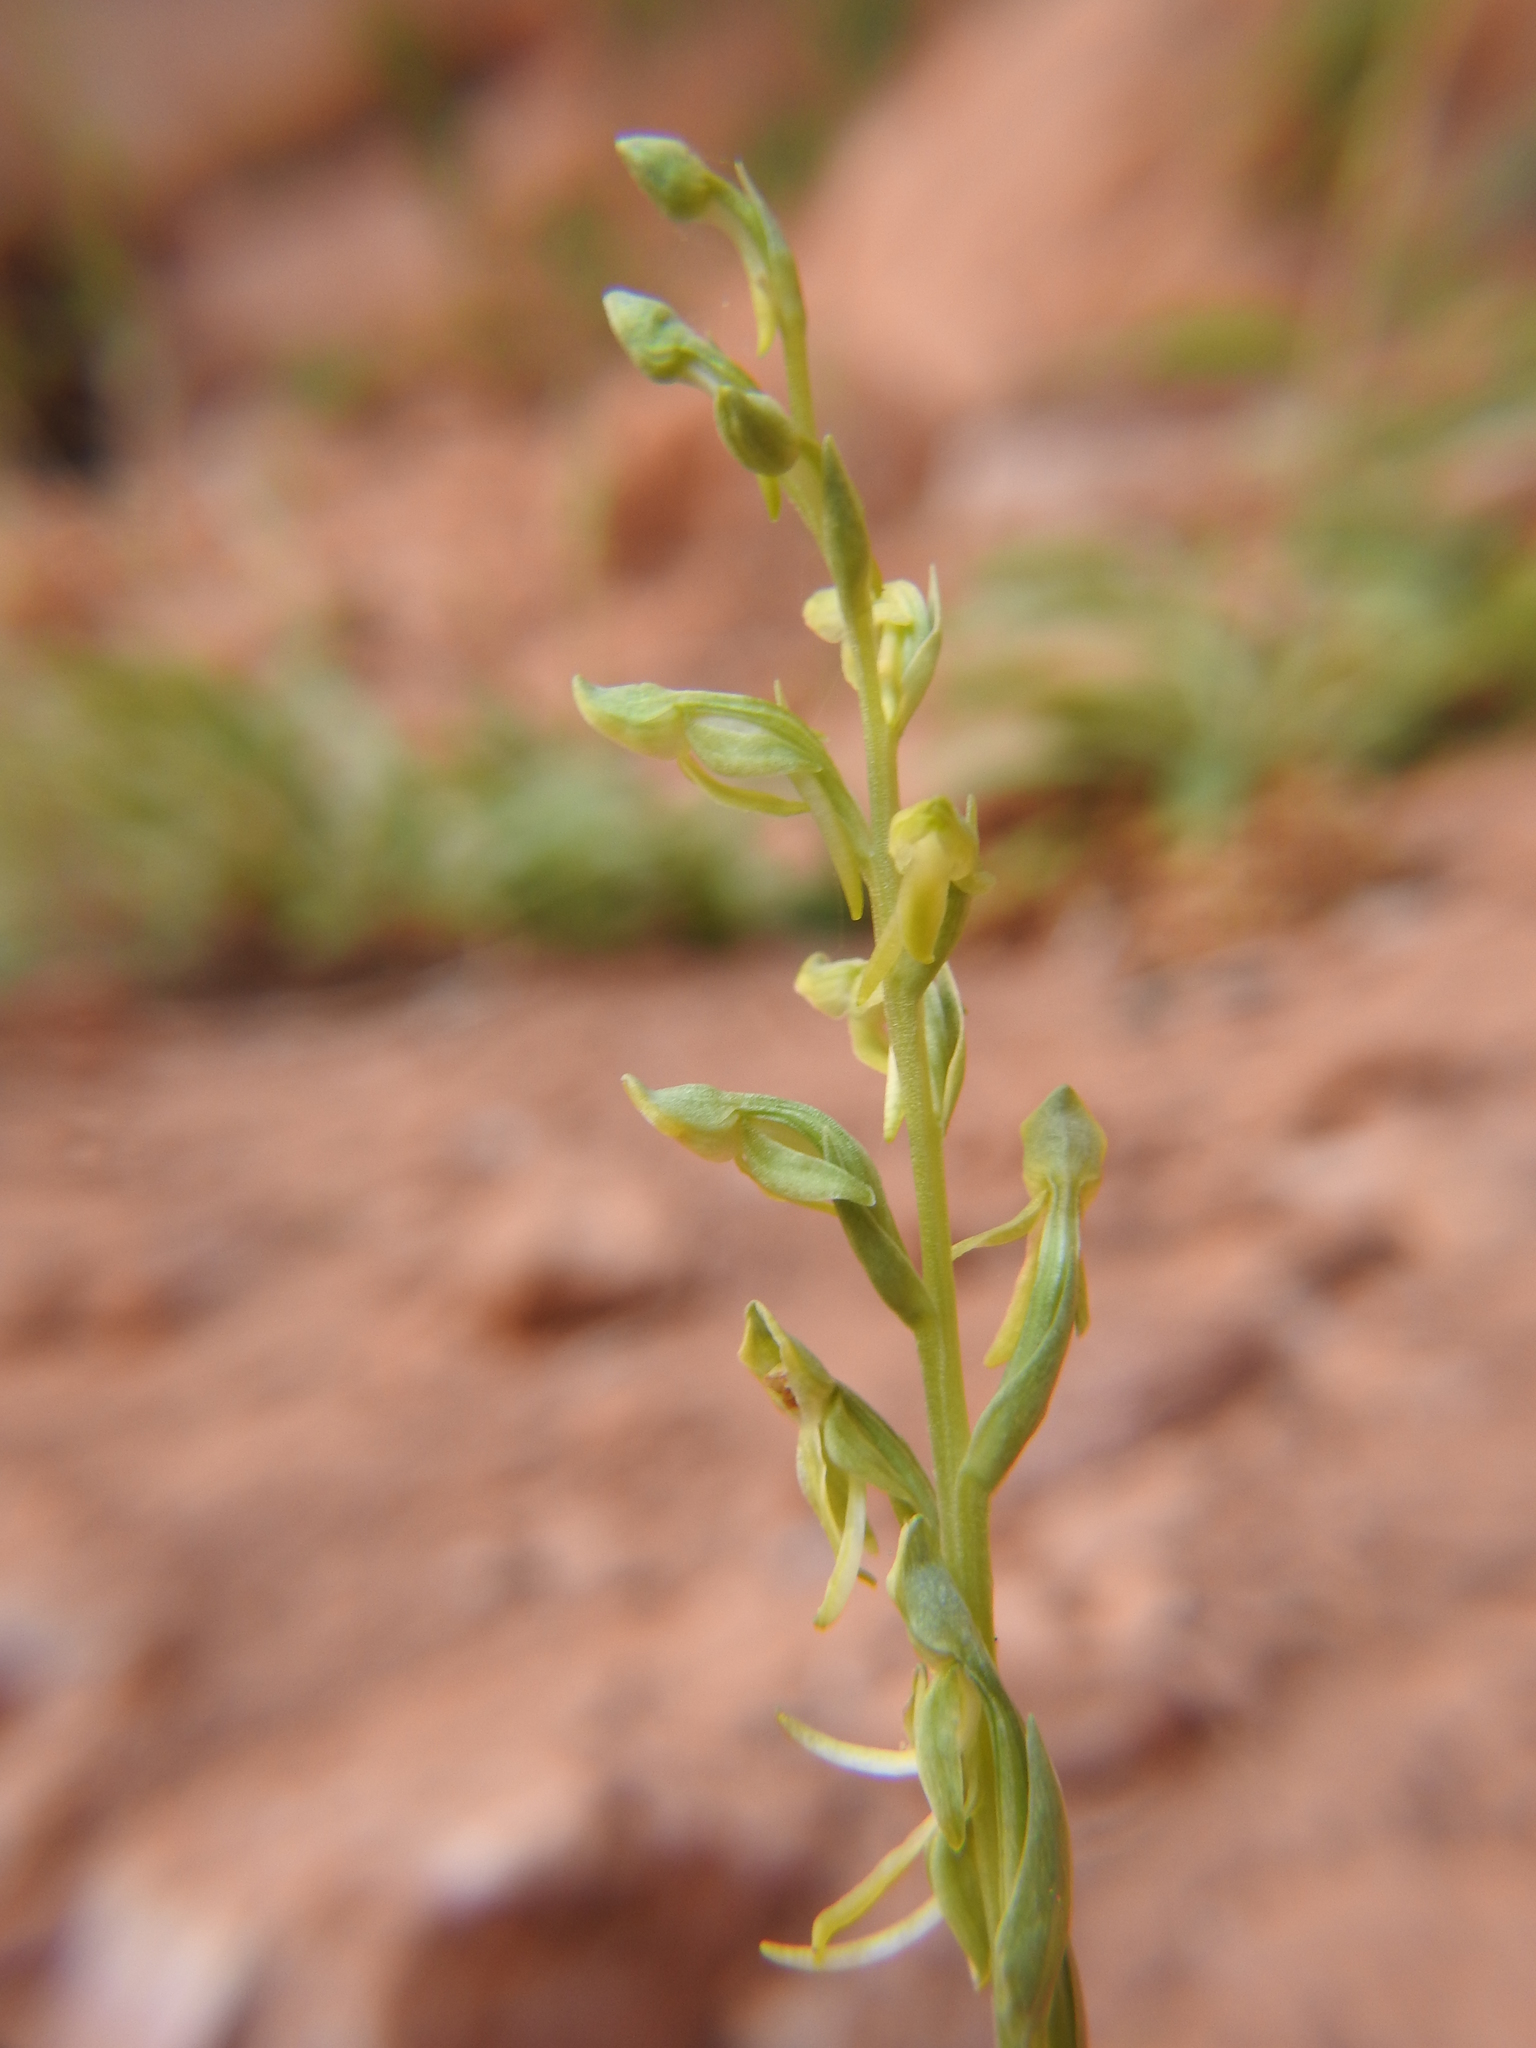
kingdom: Plantae
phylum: Tracheophyta
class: Liliopsida
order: Asparagales
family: Orchidaceae
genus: Platanthera
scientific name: Platanthera zothecina
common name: Alcove bog orchid
